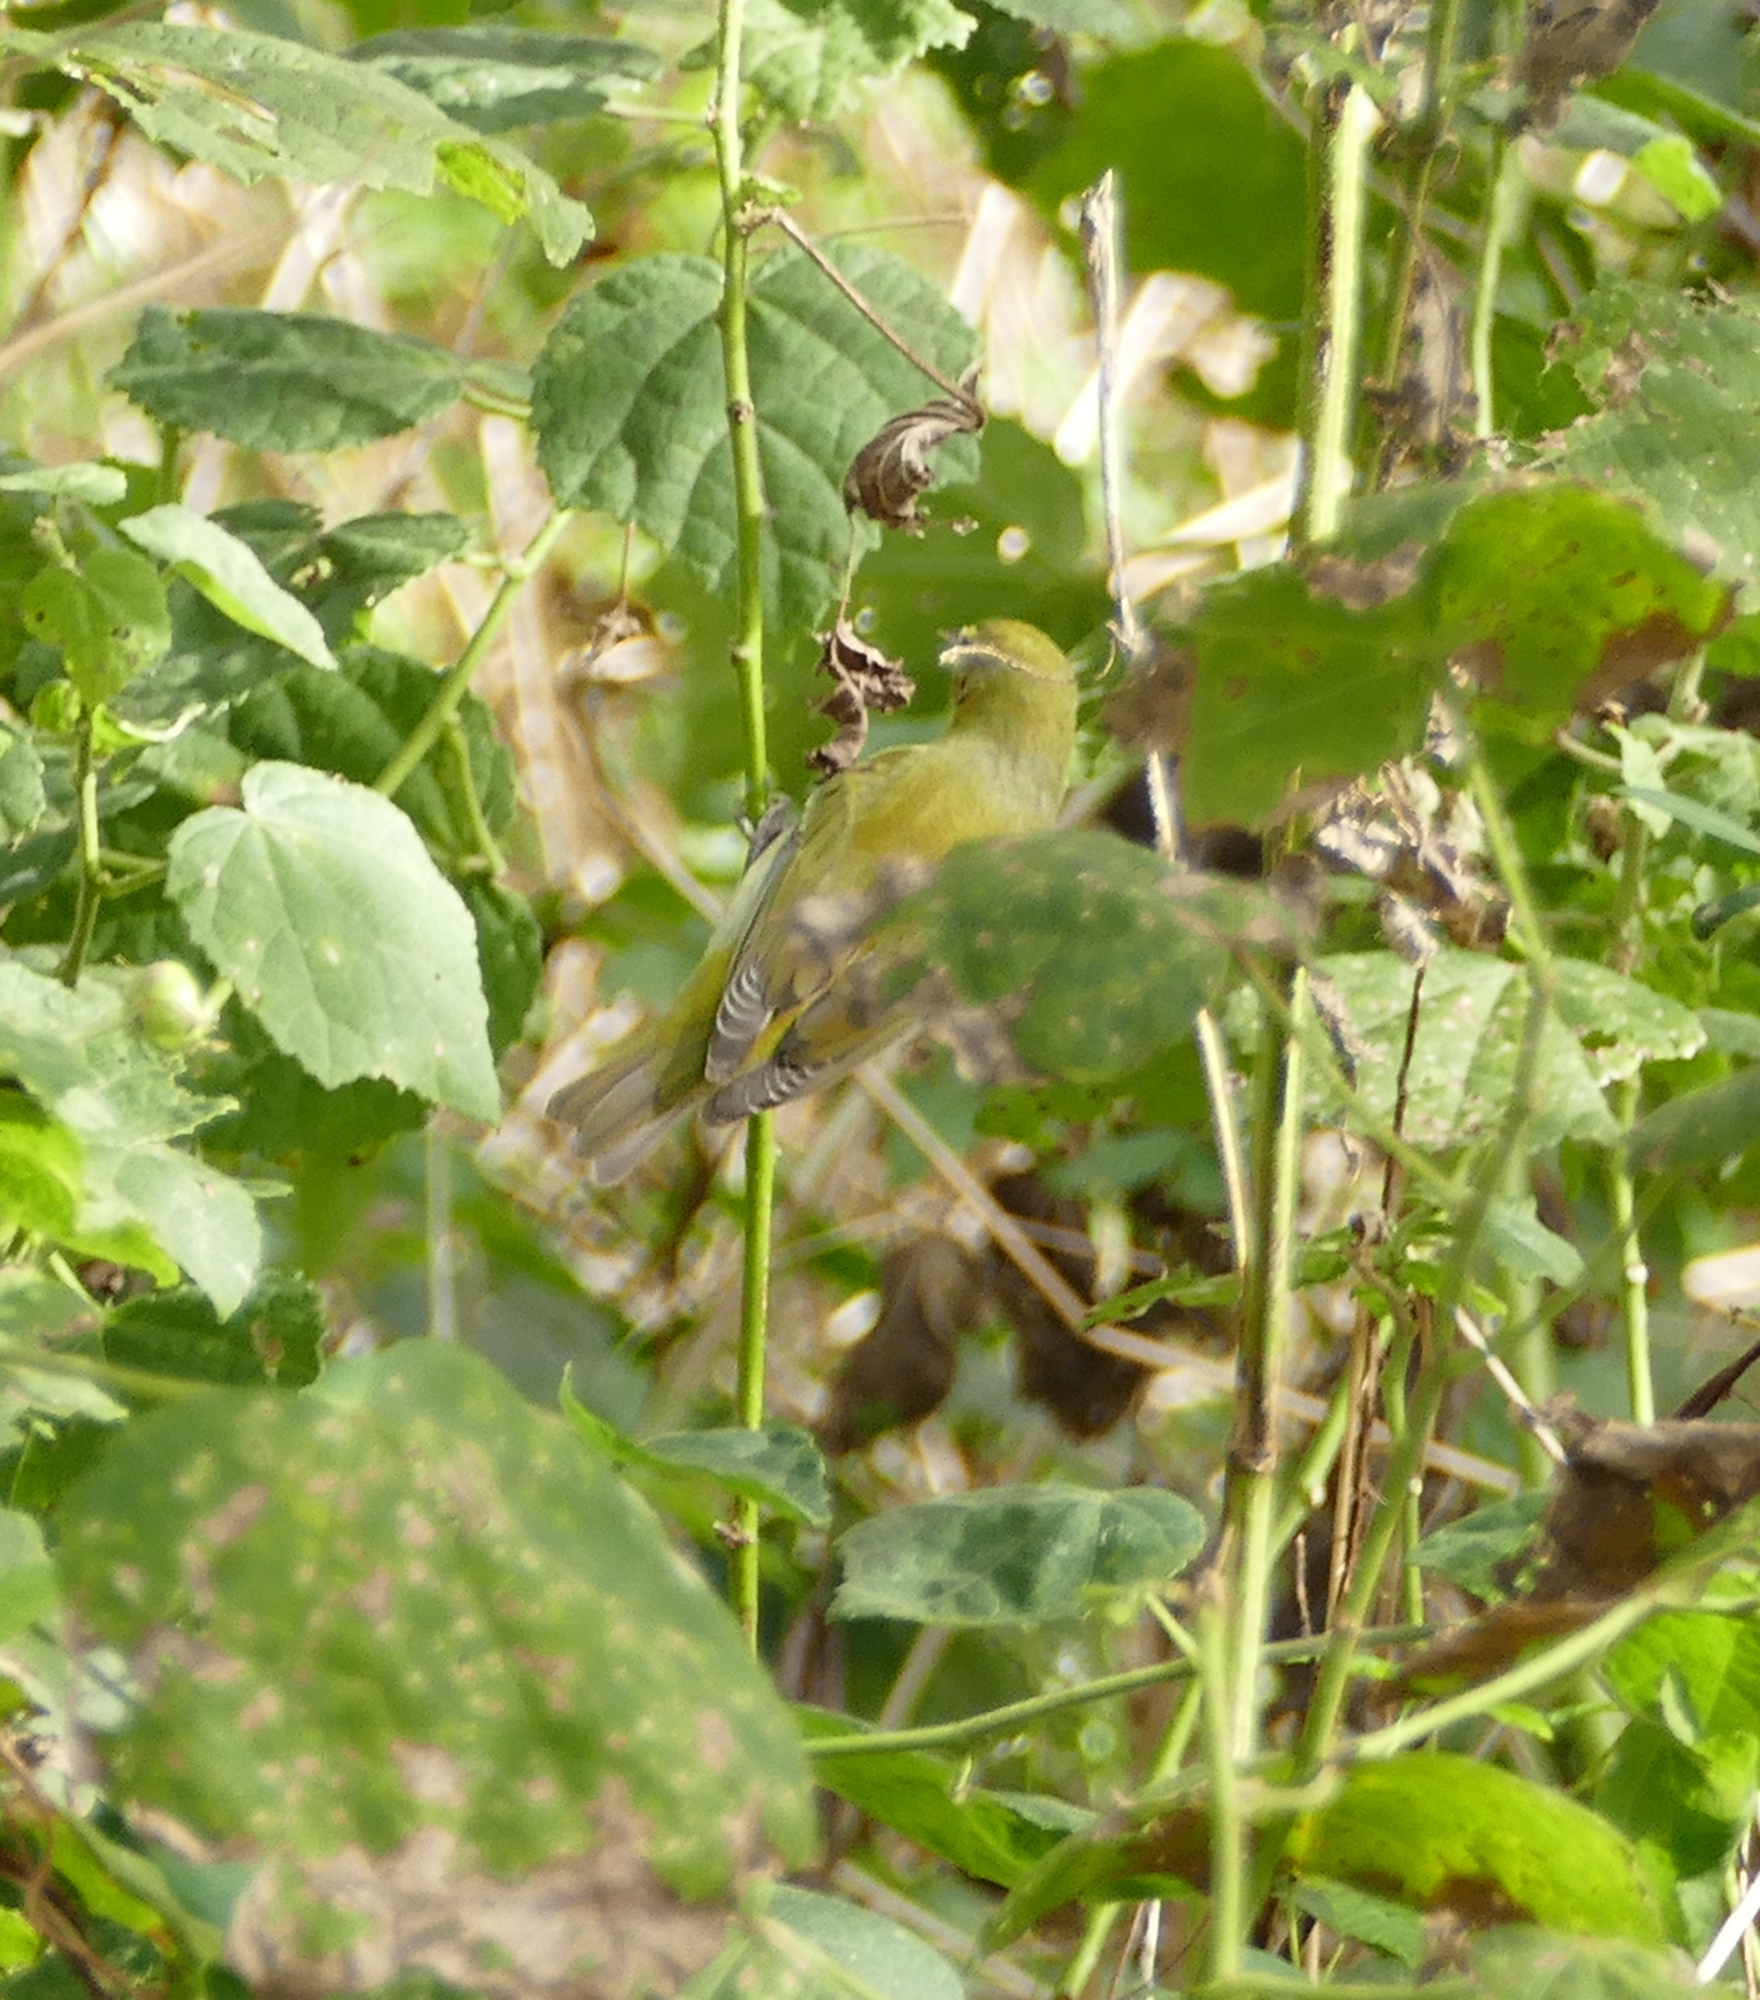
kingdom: Animalia
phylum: Chordata
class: Aves
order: Passeriformes
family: Parulidae
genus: Leiothlypis
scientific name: Leiothlypis peregrina
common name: Tennessee warbler
